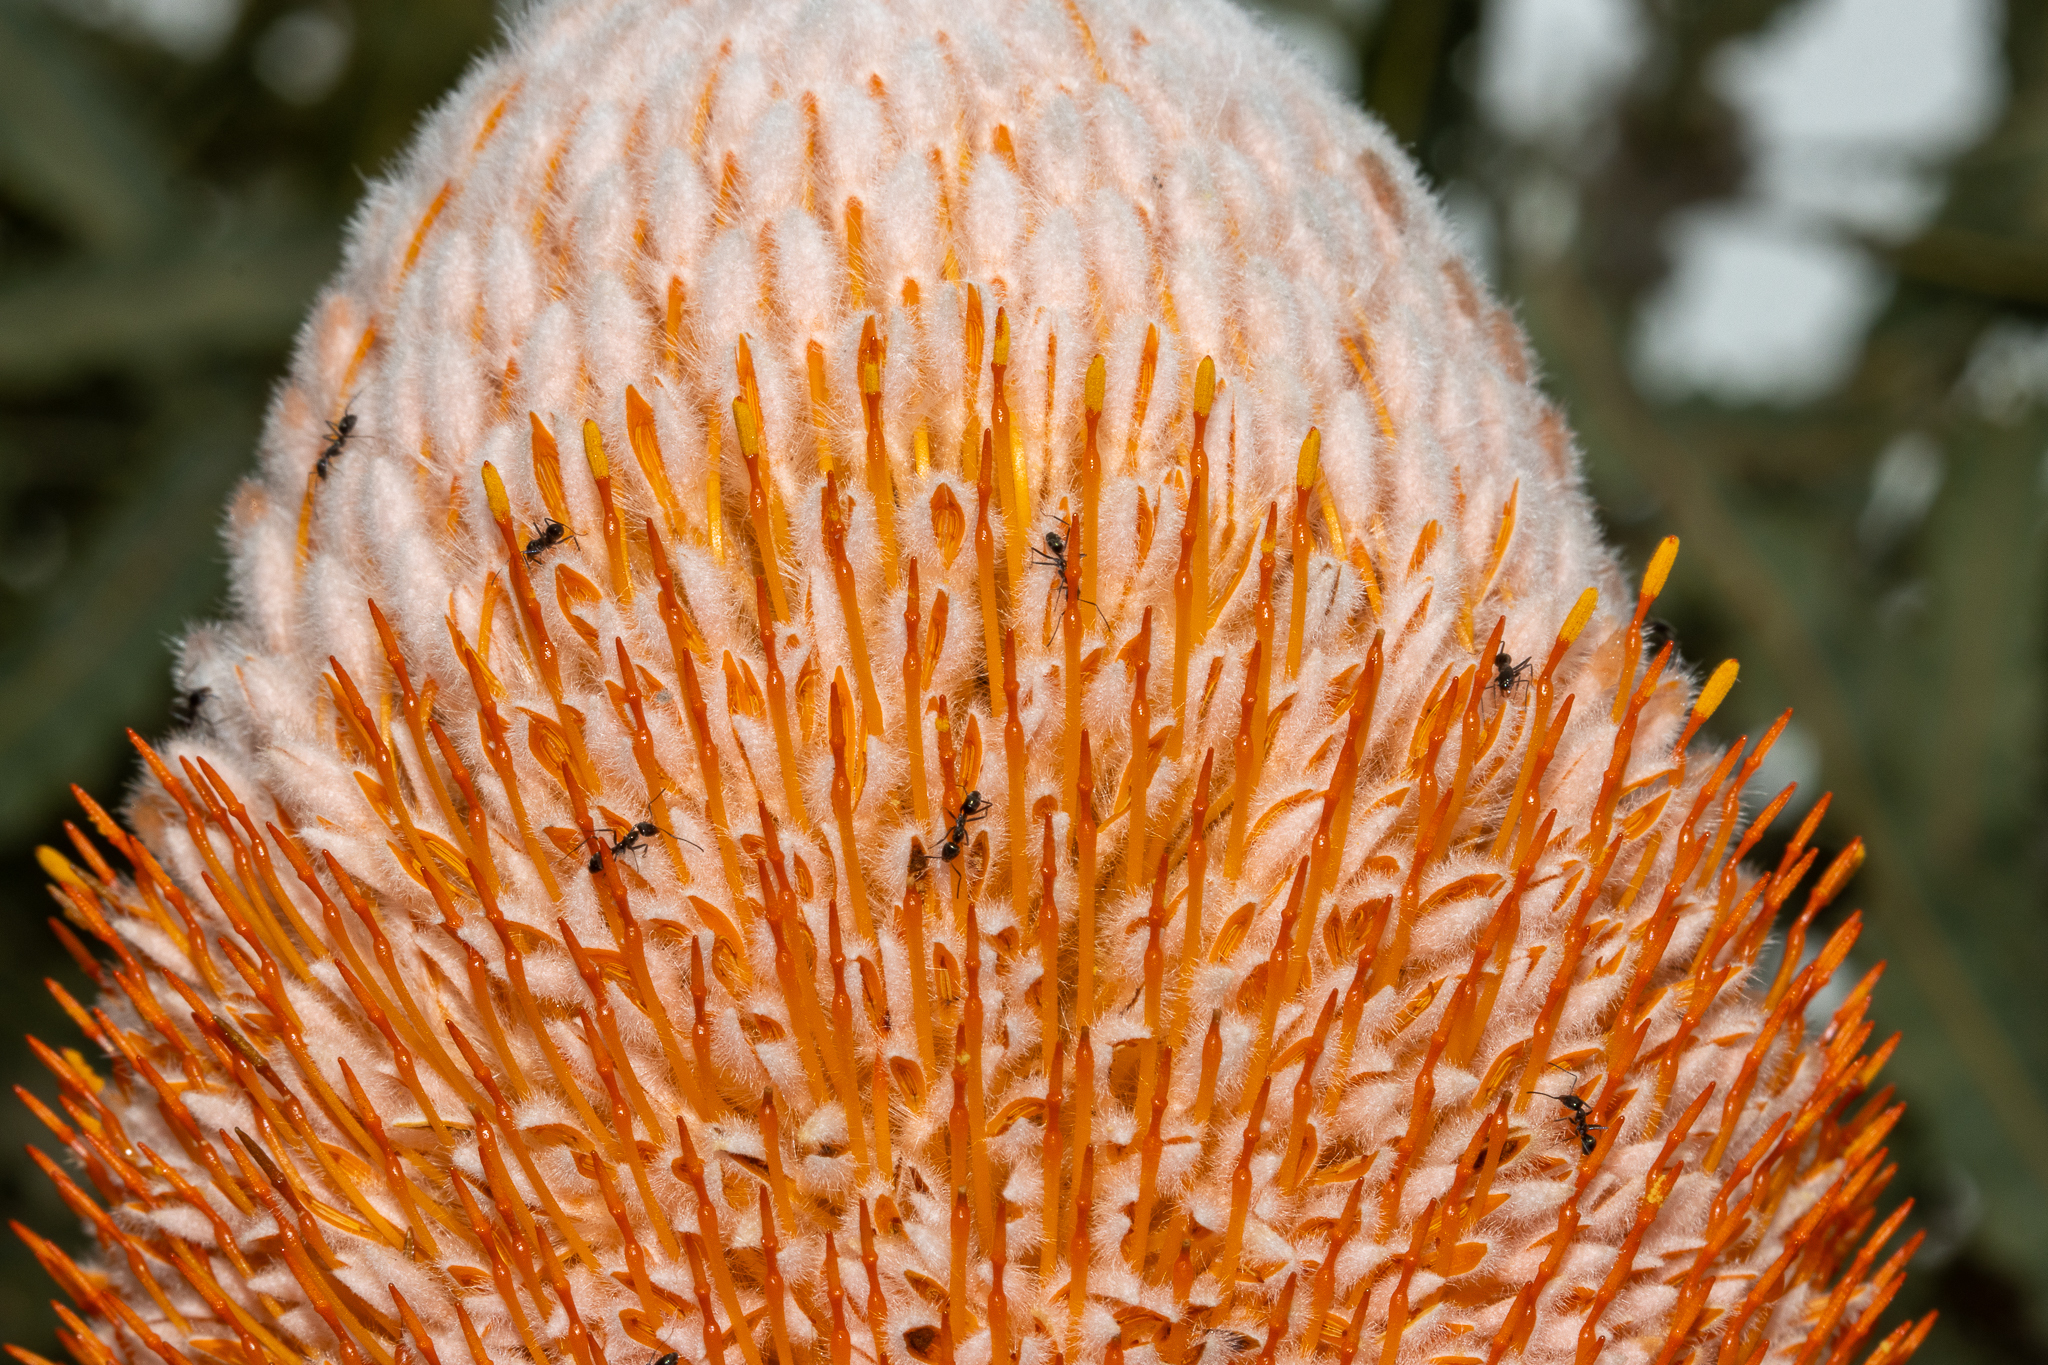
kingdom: Plantae
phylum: Tracheophyta
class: Magnoliopsida
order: Proteales
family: Proteaceae
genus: Banksia
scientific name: Banksia prionotes
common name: Acorn banksia
